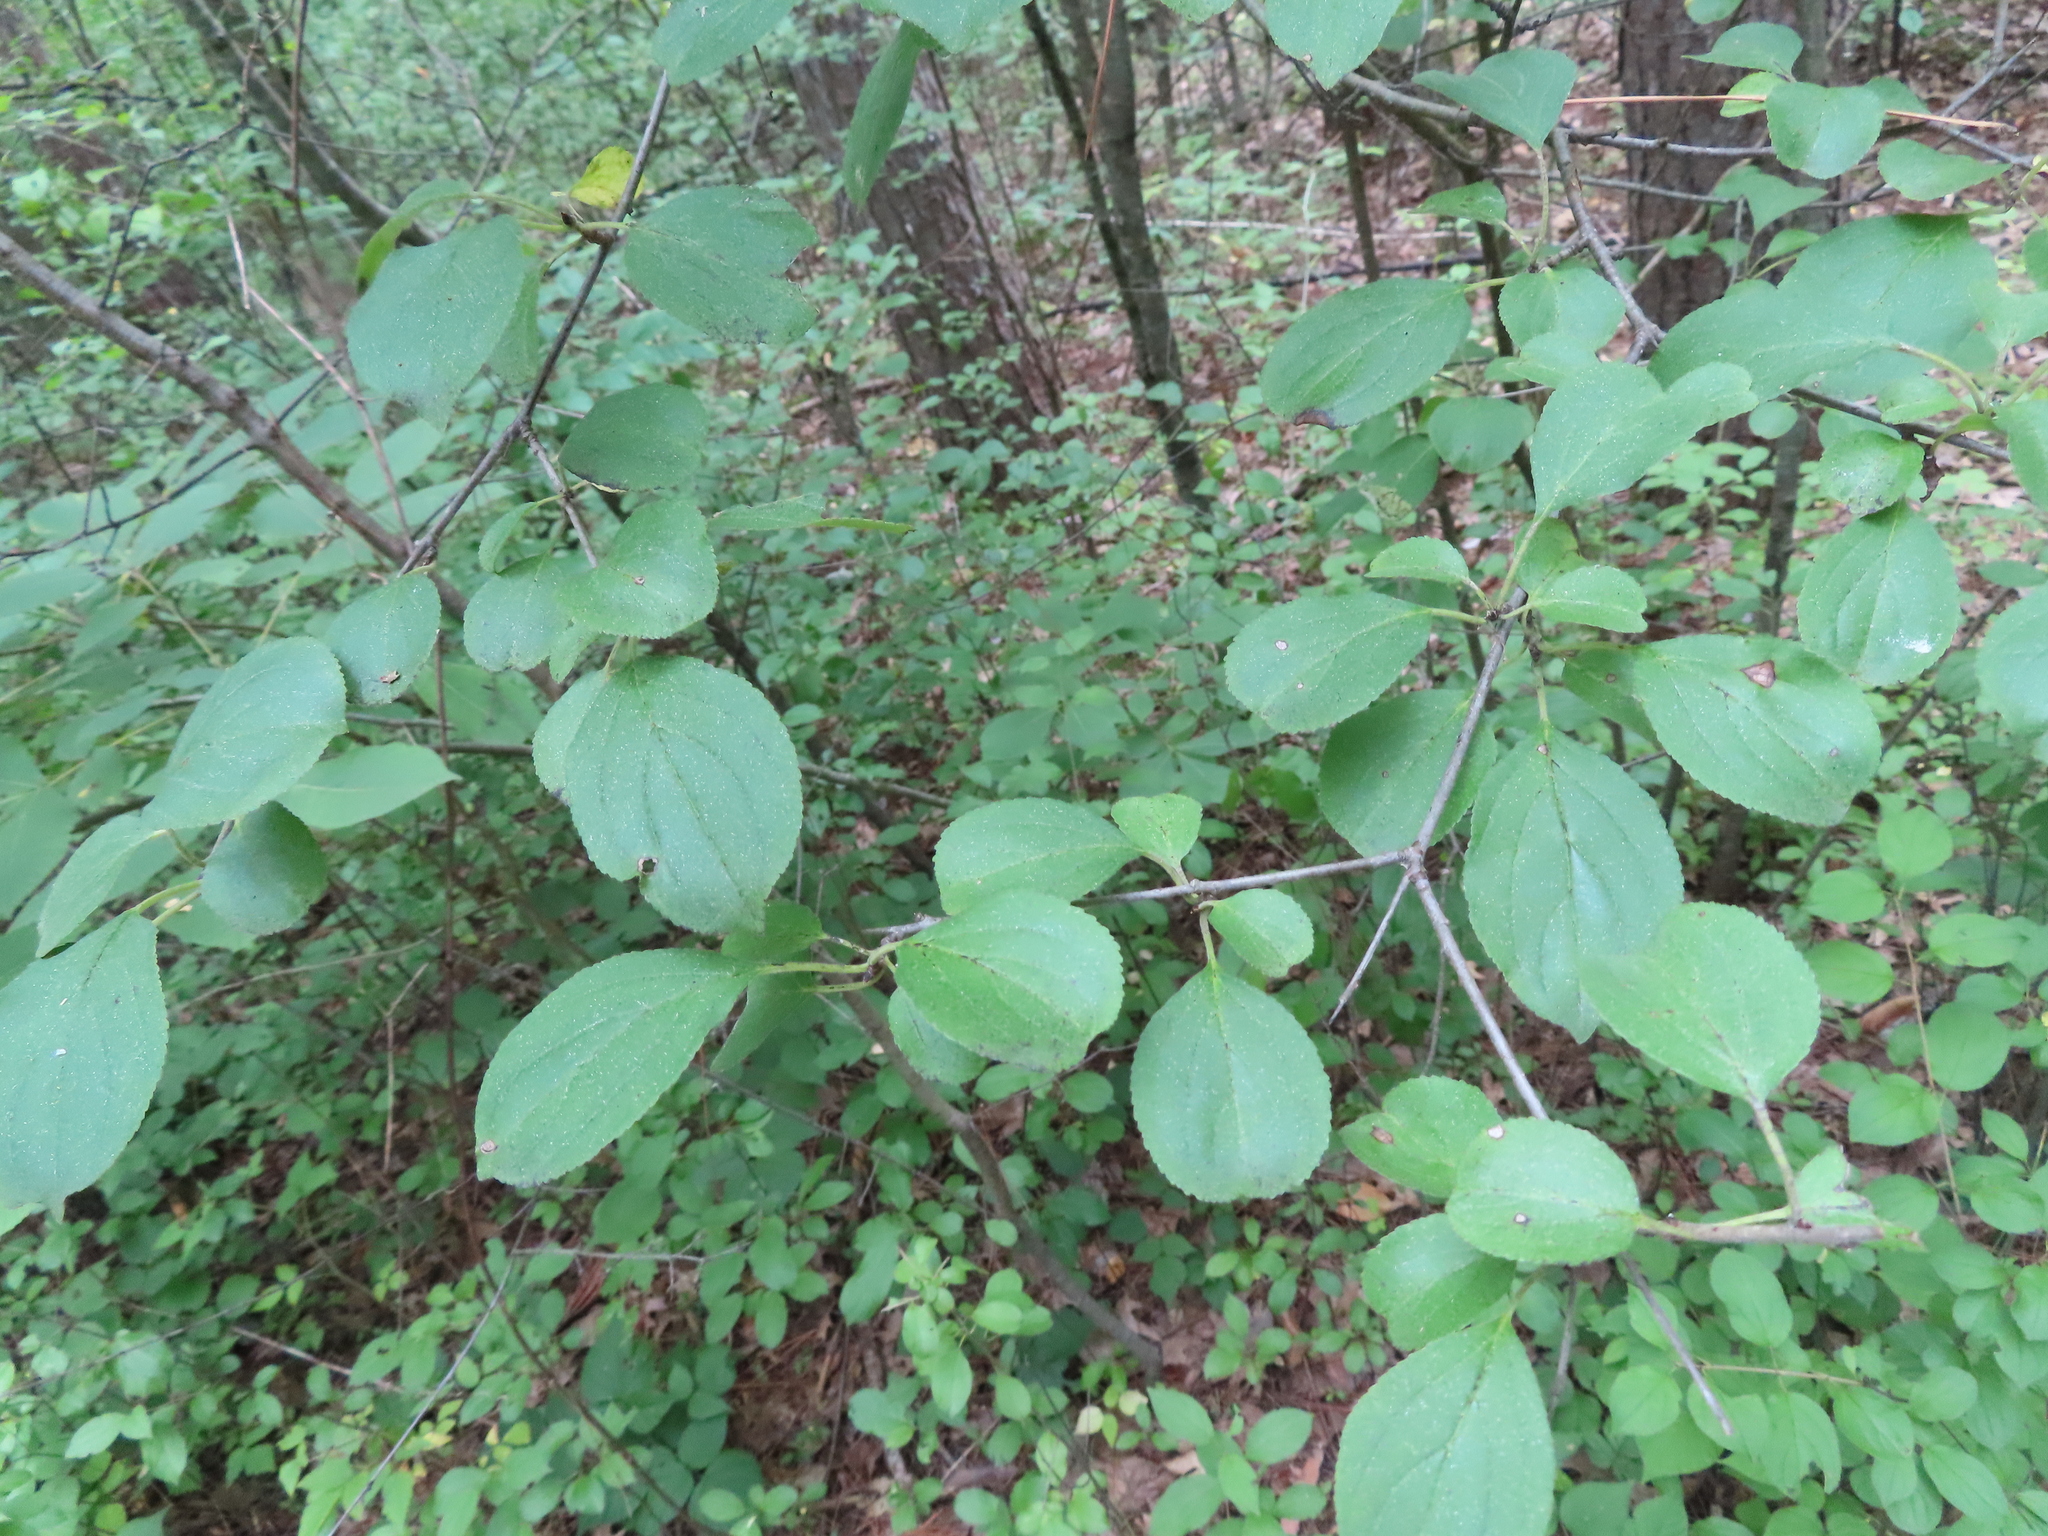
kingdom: Plantae
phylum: Tracheophyta
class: Magnoliopsida
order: Rosales
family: Rhamnaceae
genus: Rhamnus
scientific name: Rhamnus cathartica
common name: Common buckthorn
